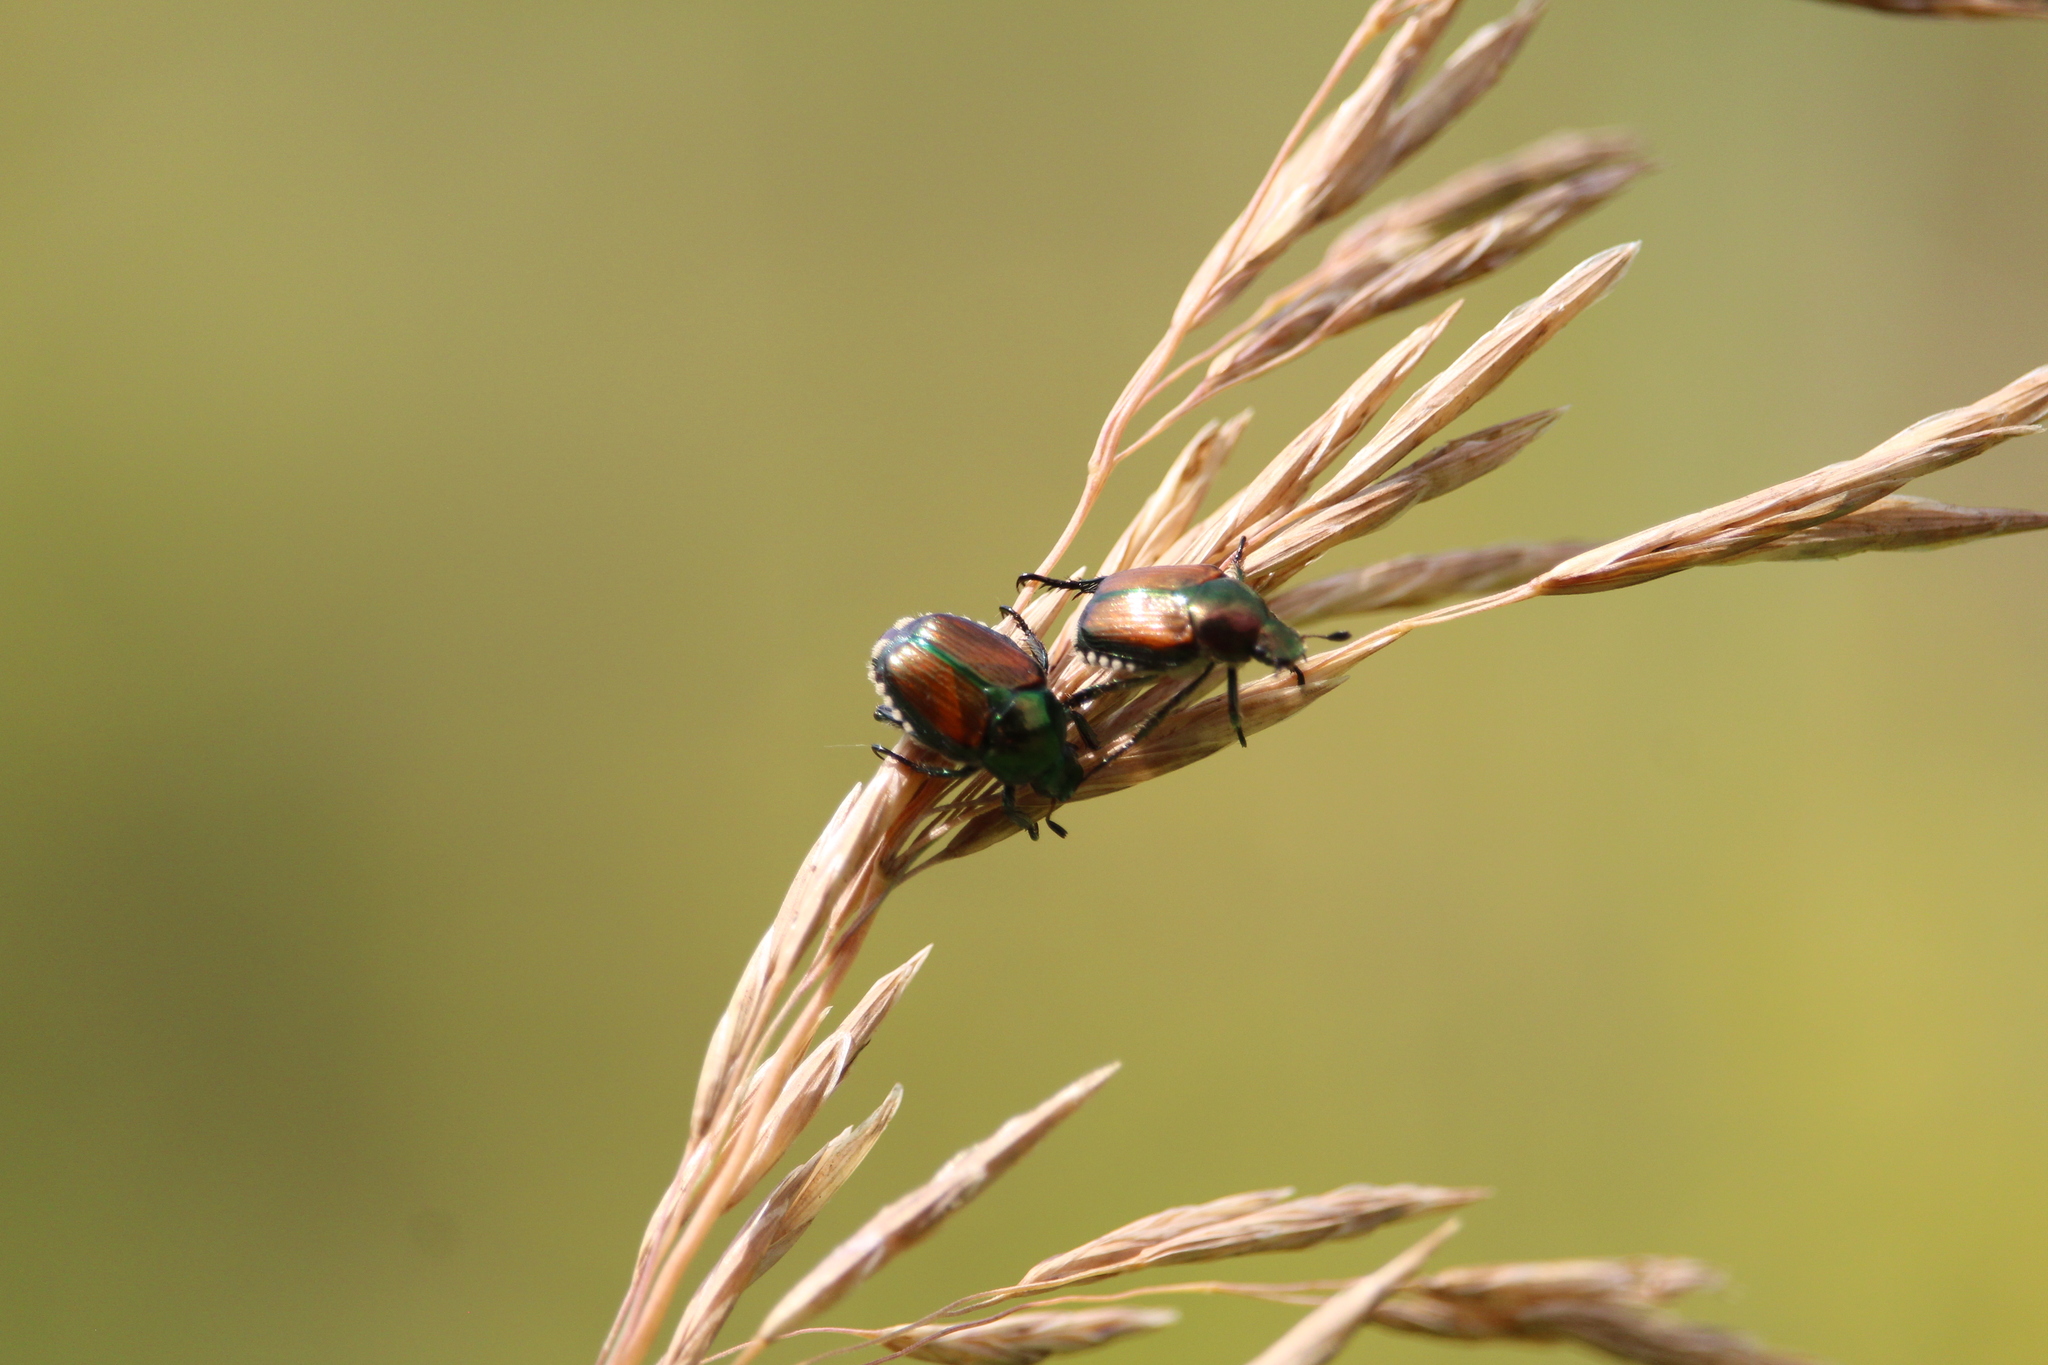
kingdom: Animalia
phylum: Arthropoda
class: Insecta
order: Coleoptera
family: Scarabaeidae
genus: Popillia
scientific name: Popillia japonica
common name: Japanese beetle
